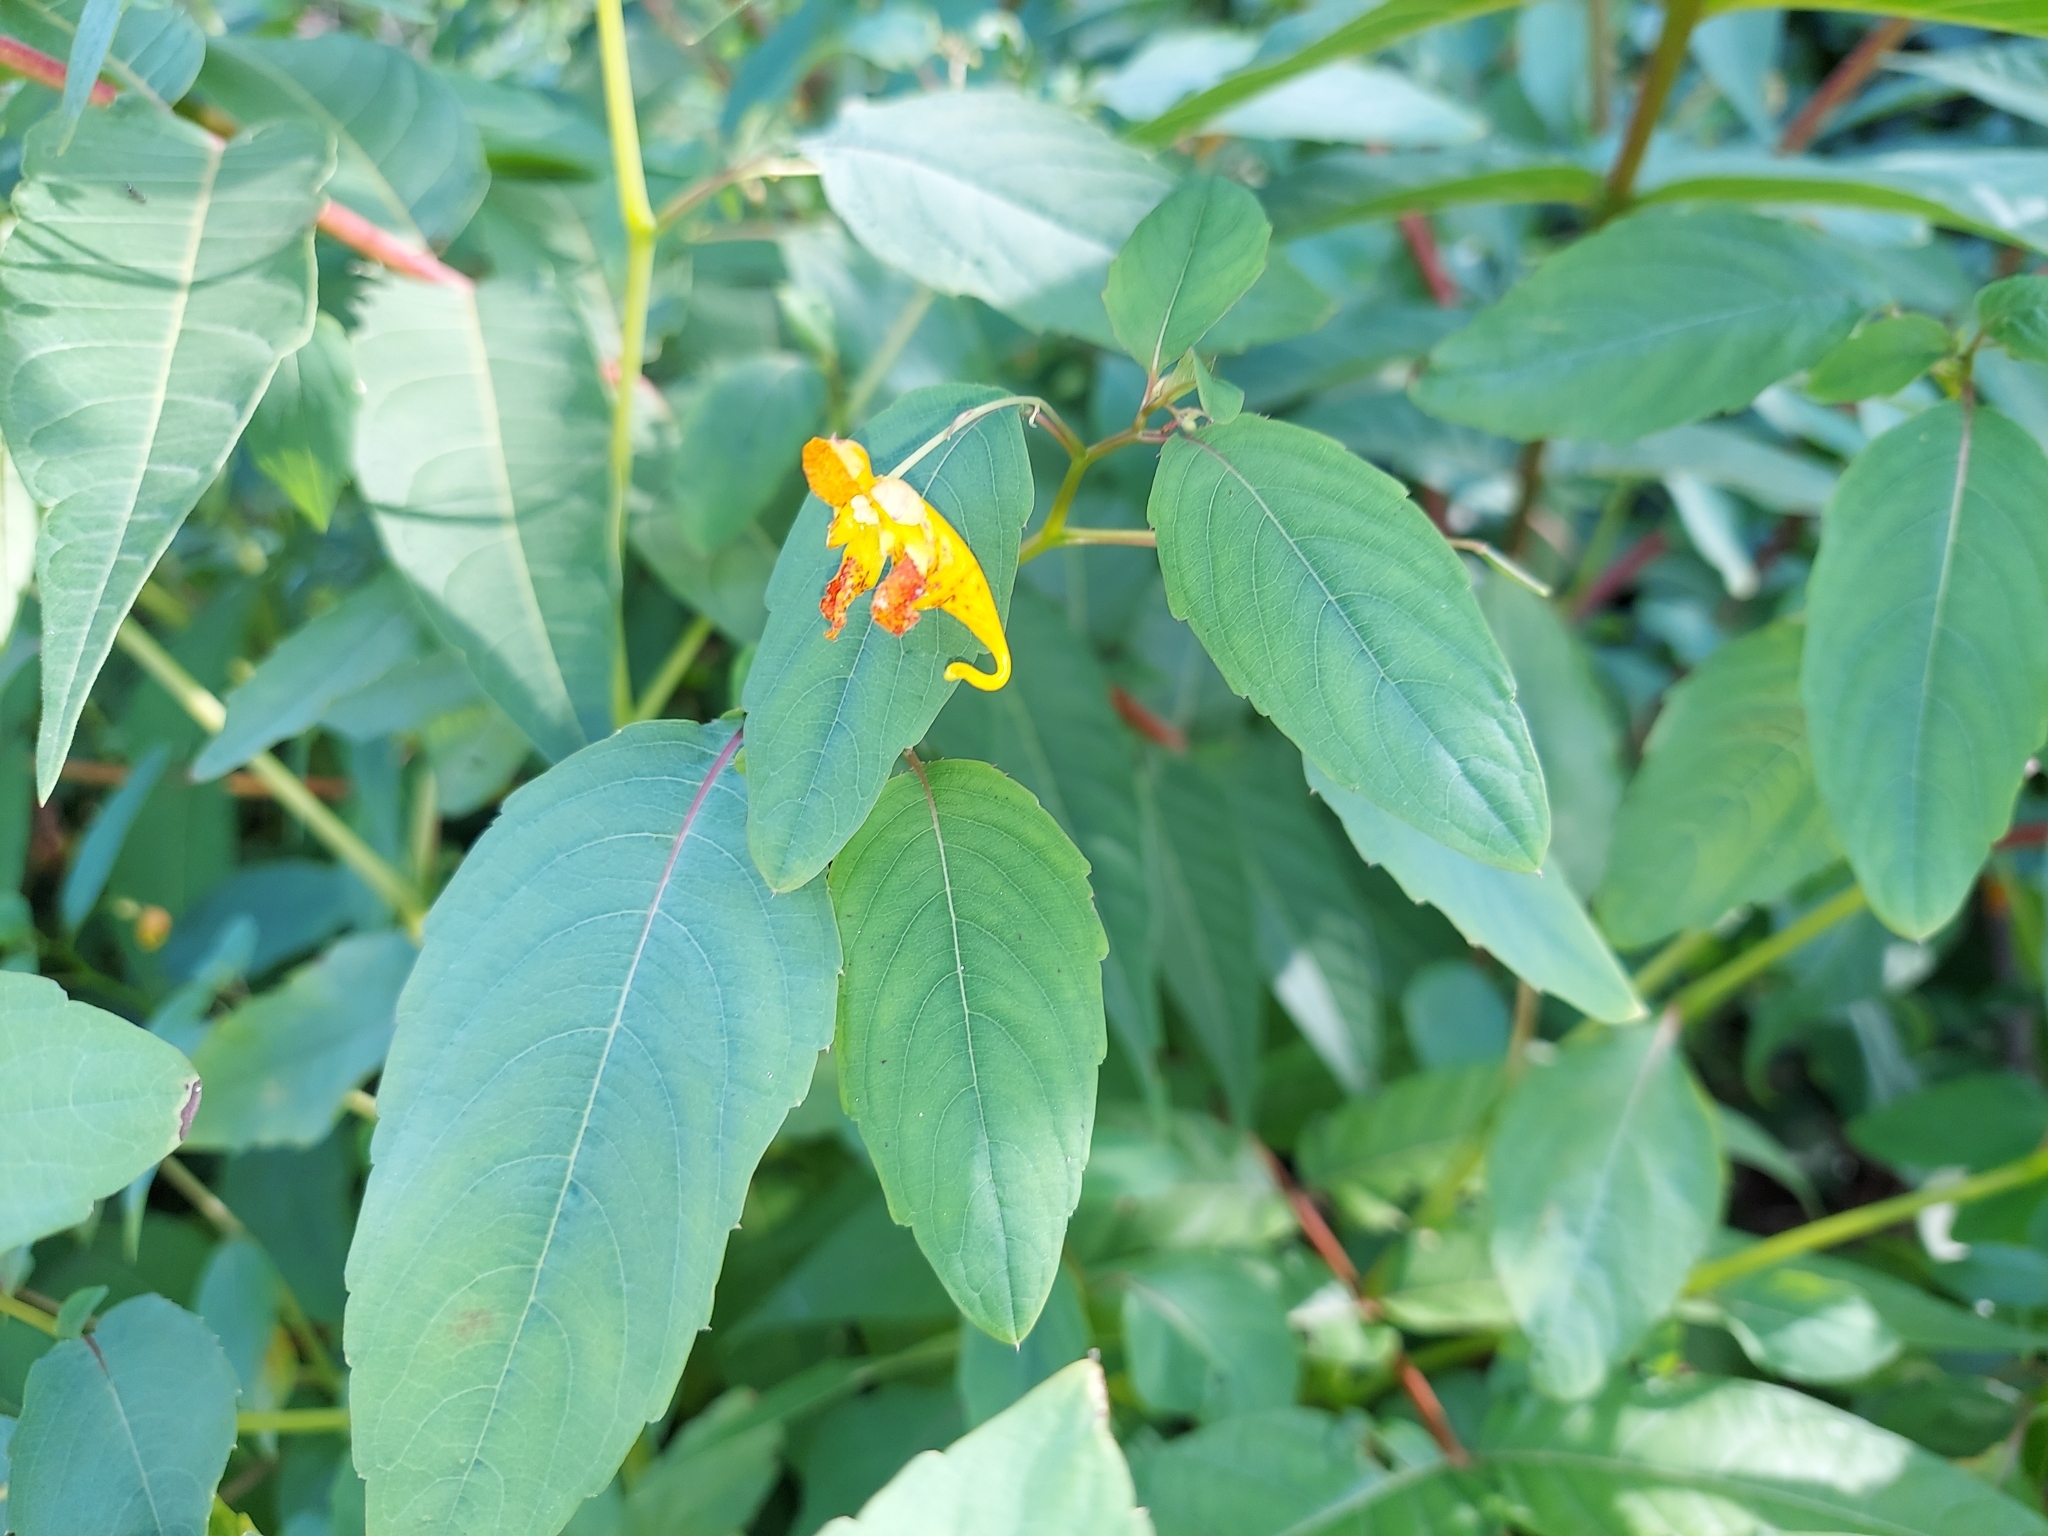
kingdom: Plantae
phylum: Tracheophyta
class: Magnoliopsida
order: Ericales
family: Balsaminaceae
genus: Impatiens
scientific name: Impatiens capensis
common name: Orange balsam
